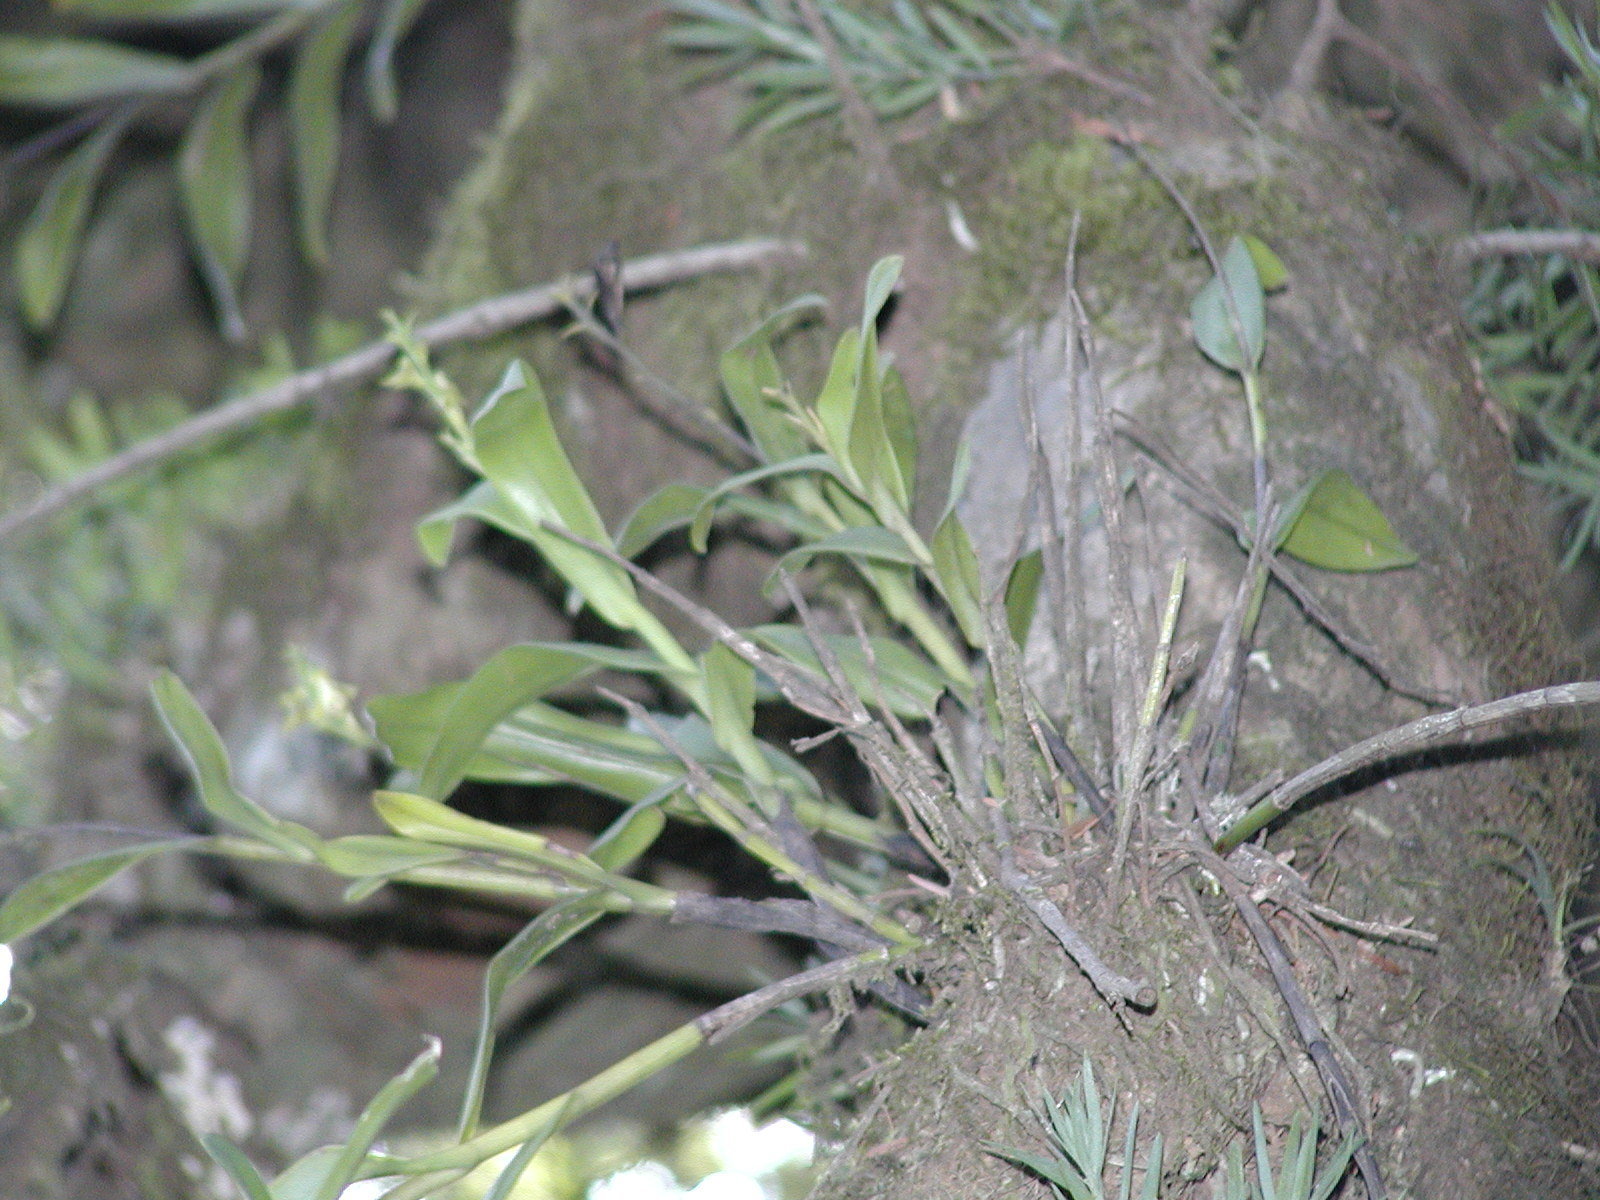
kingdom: Plantae
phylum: Tracheophyta
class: Liliopsida
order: Asparagales
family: Orchidaceae
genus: Polystachya
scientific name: Polystachya transvaalensis
